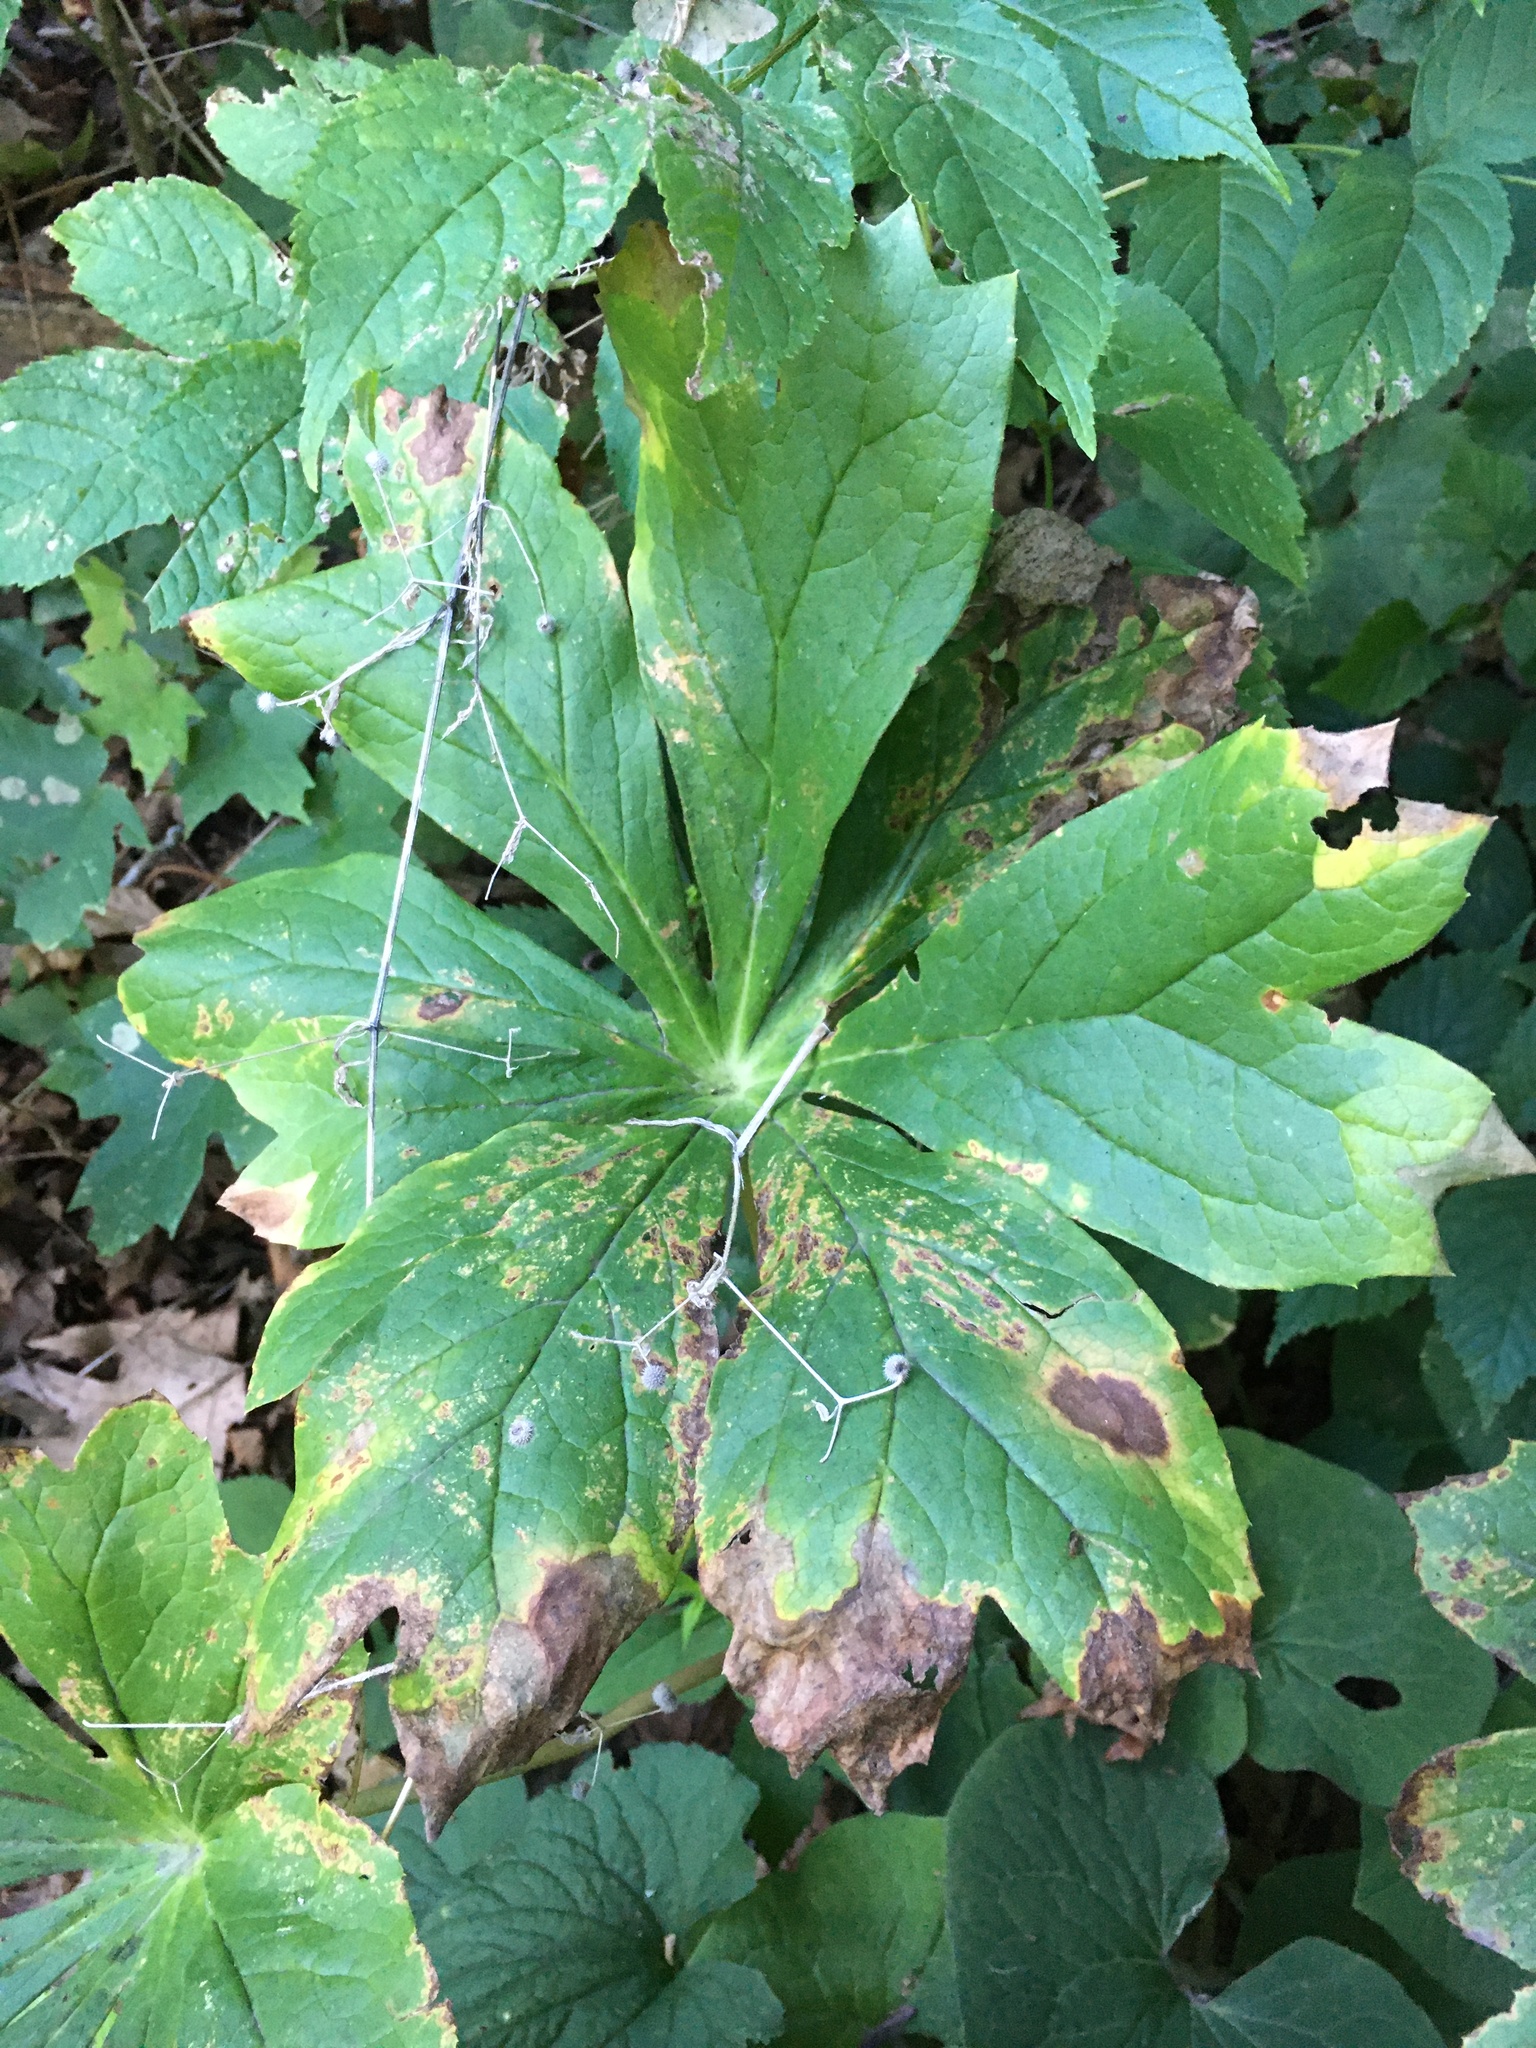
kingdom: Plantae
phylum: Tracheophyta
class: Magnoliopsida
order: Ranunculales
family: Berberidaceae
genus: Podophyllum
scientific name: Podophyllum peltatum
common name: Wild mandrake
